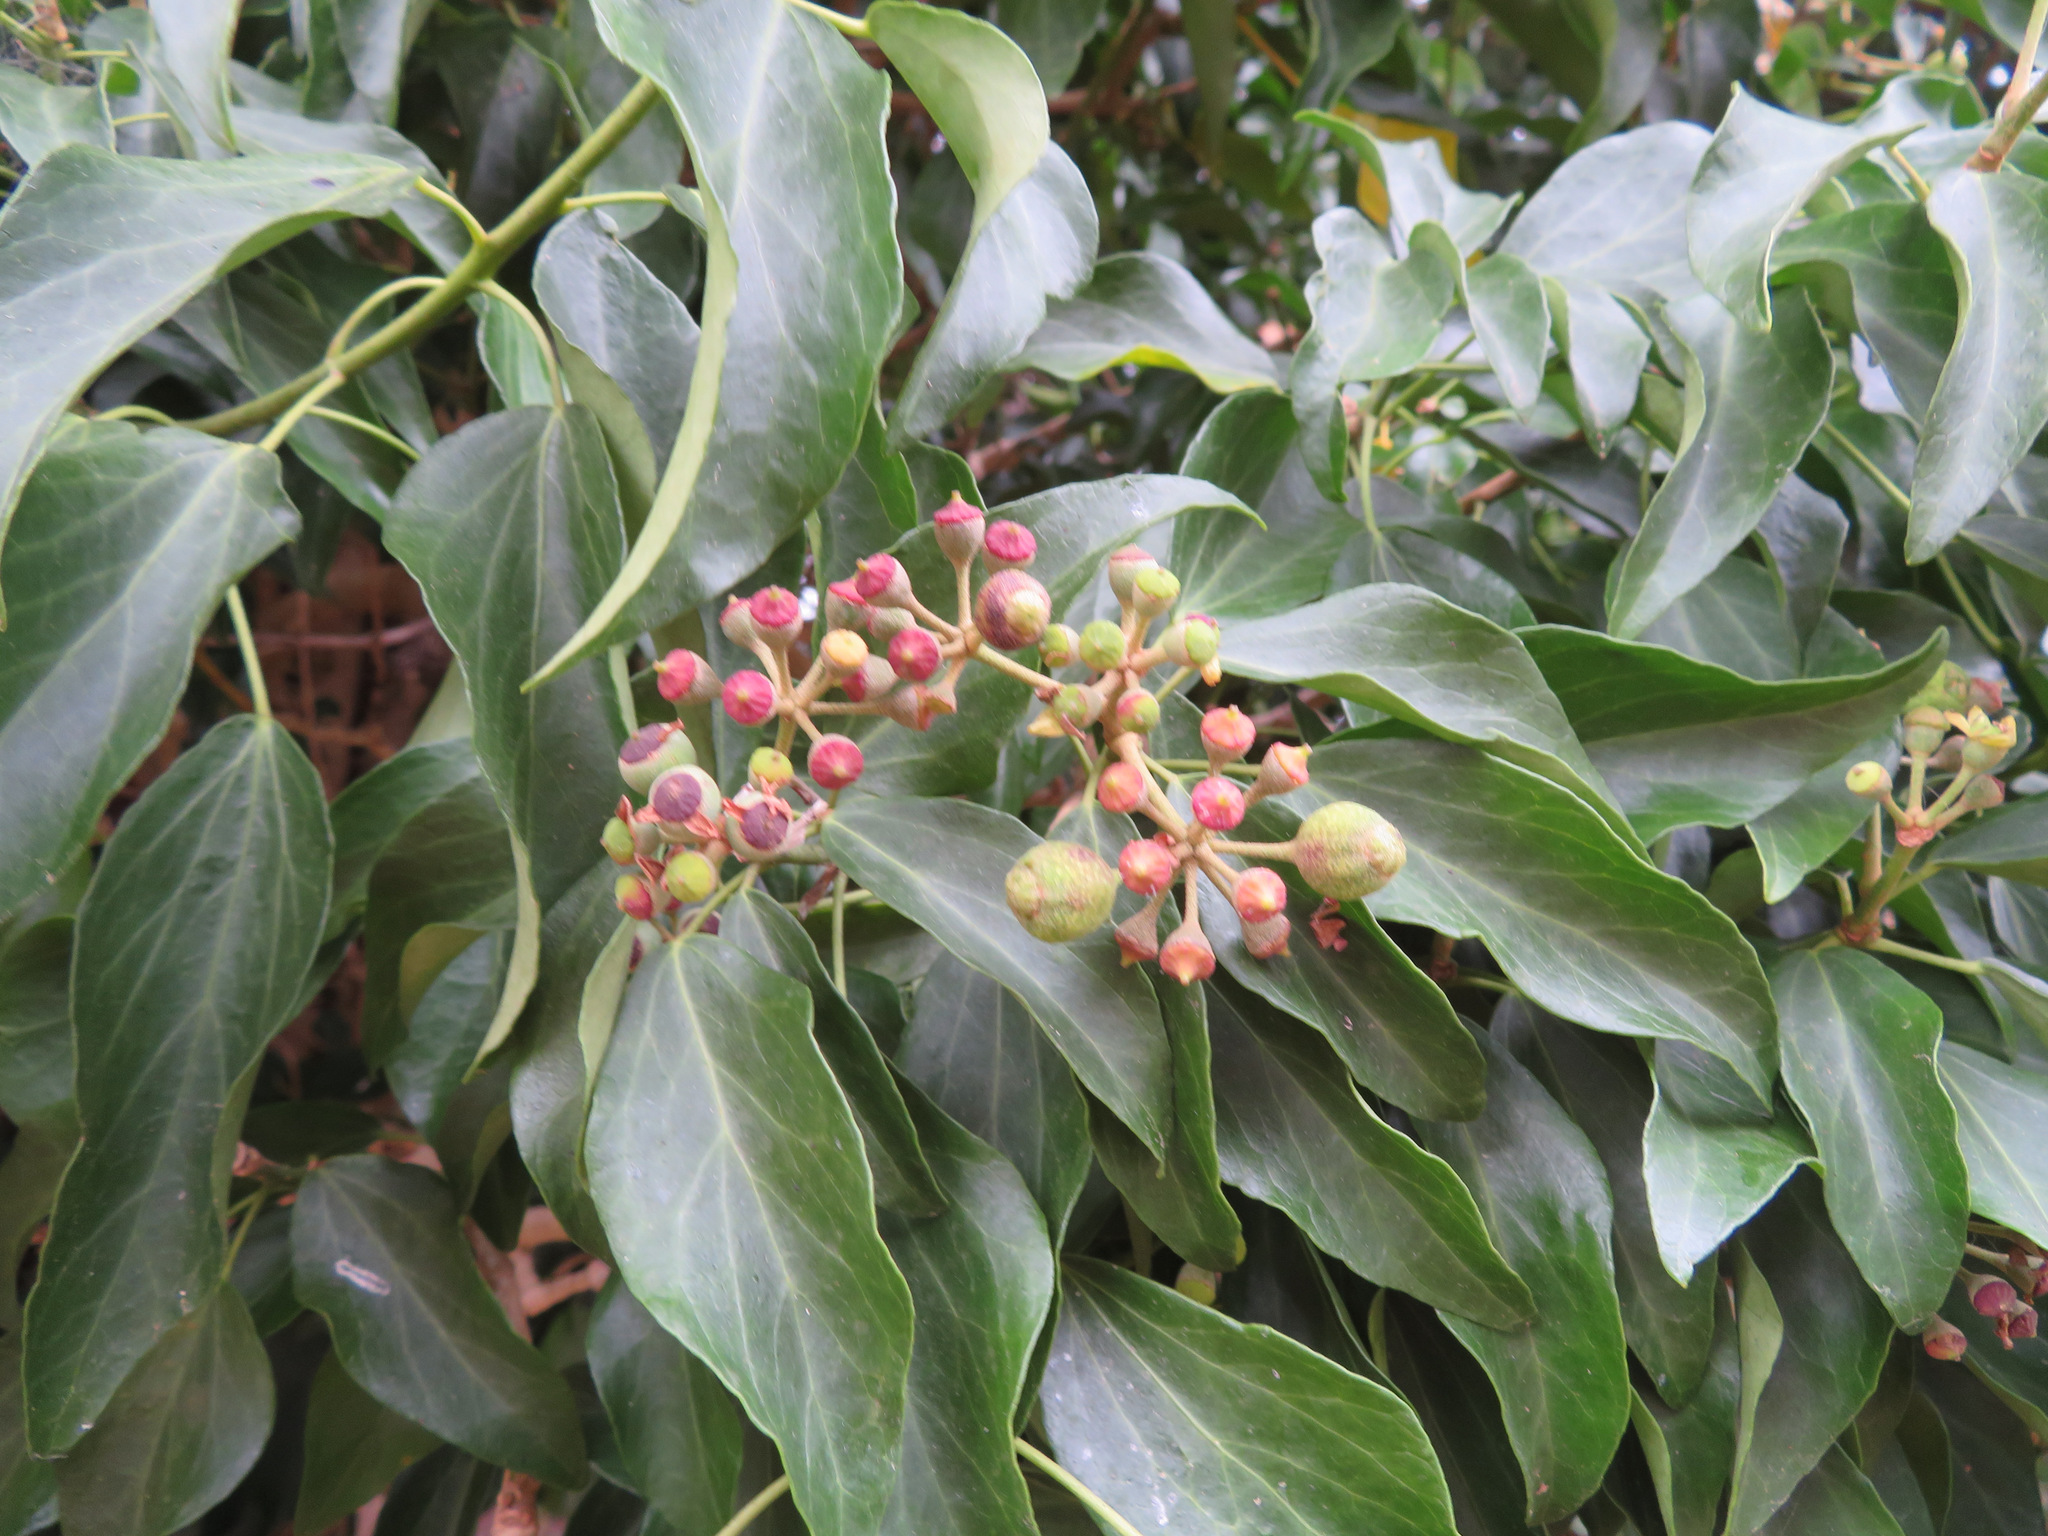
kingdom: Plantae
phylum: Tracheophyta
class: Magnoliopsida
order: Apiales
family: Araliaceae
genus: Hedera
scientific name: Hedera rhombea
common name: Japanese ivy
